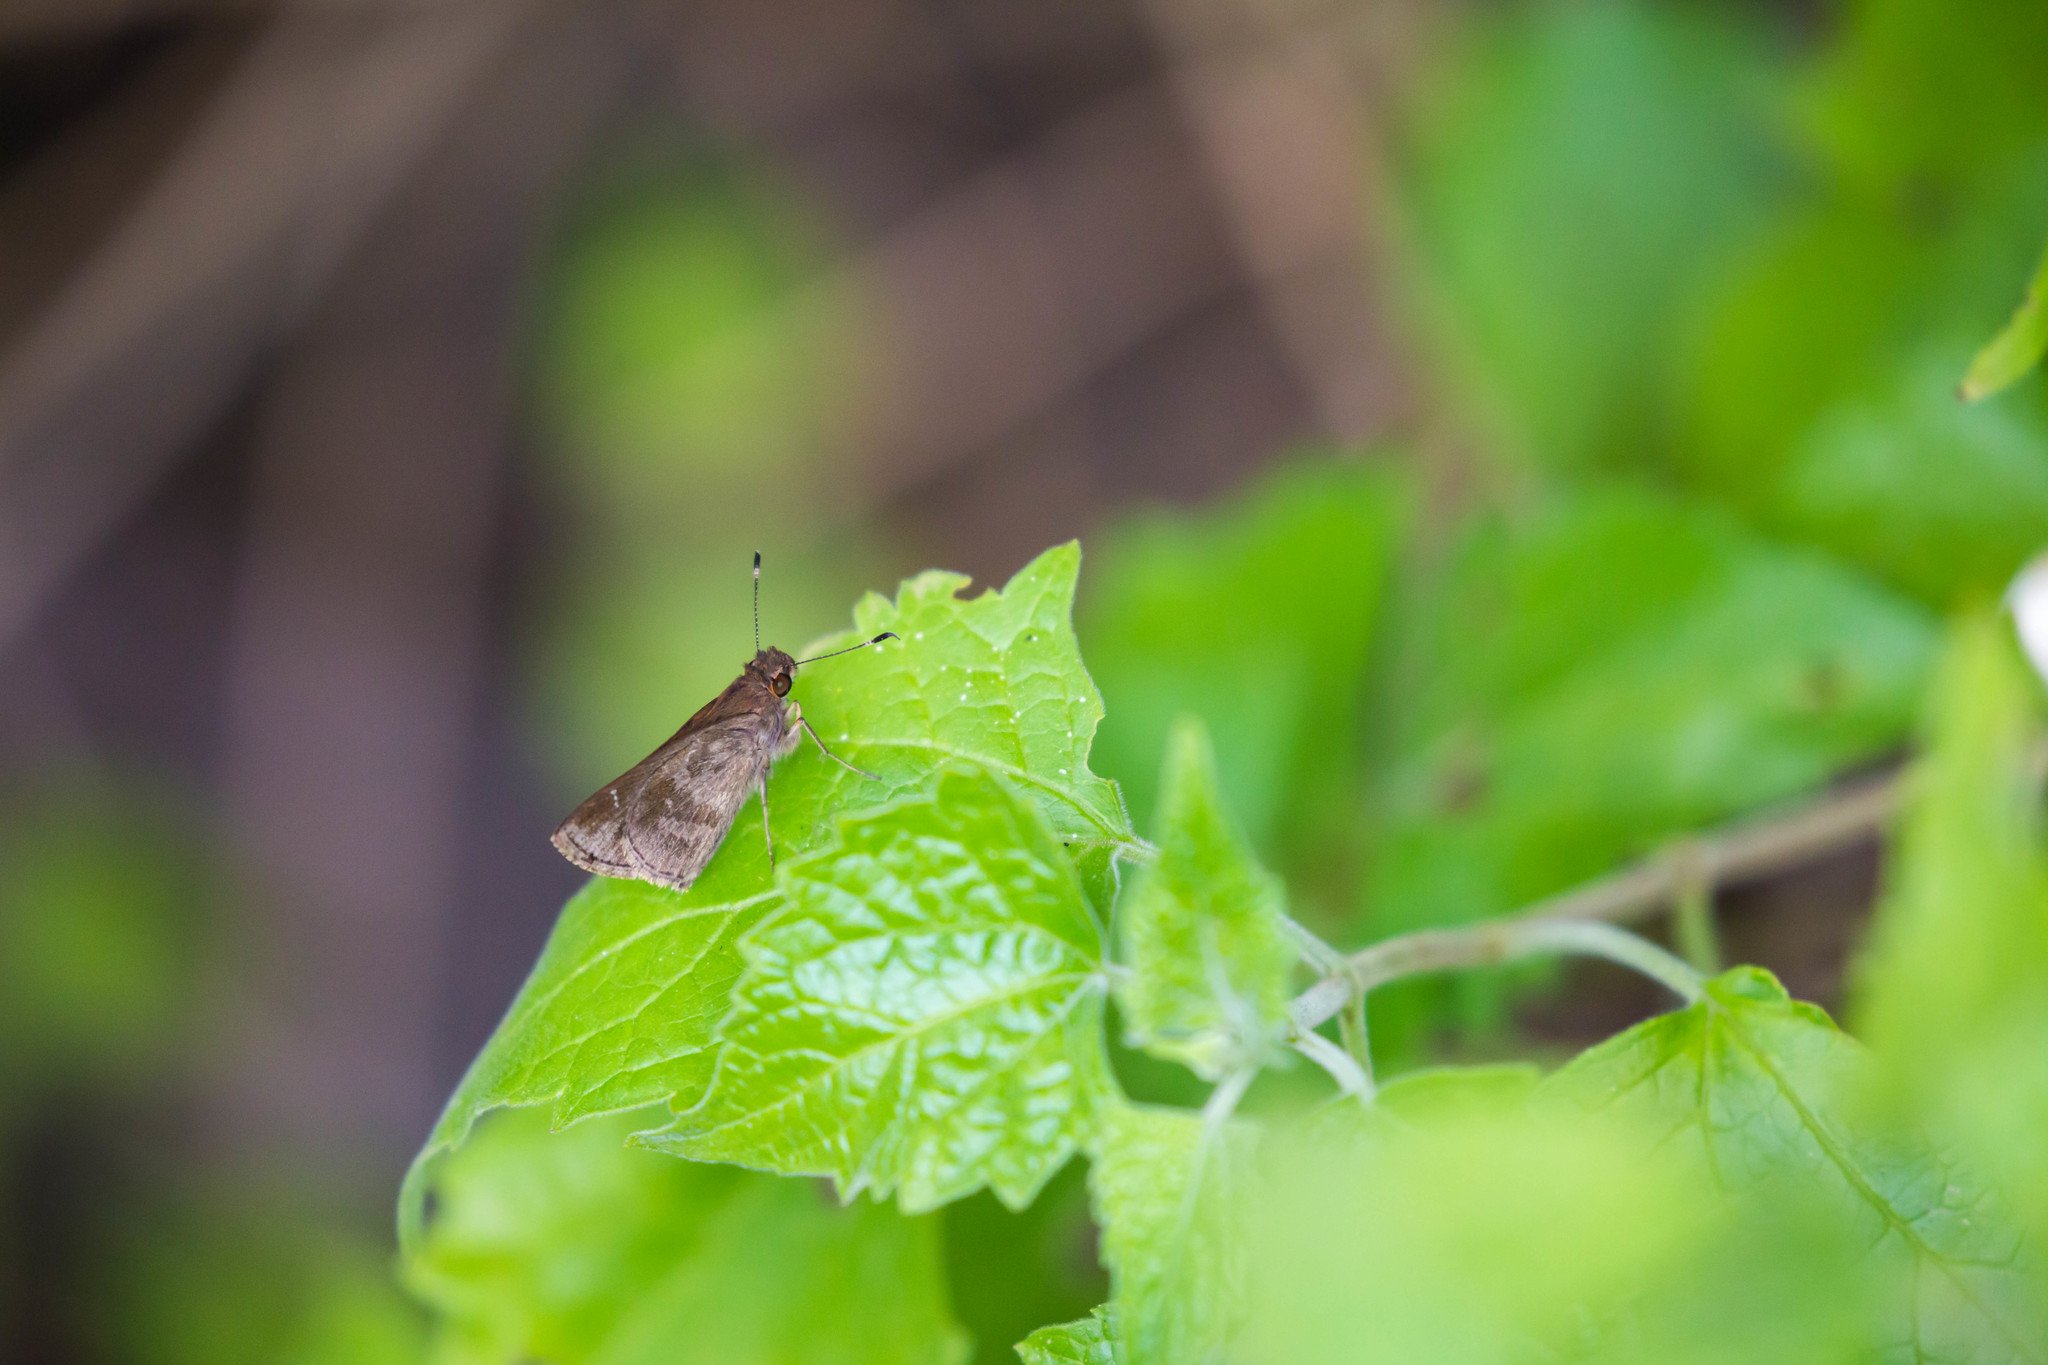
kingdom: Animalia
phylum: Arthropoda
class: Insecta
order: Lepidoptera
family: Hesperiidae
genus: Cymaenes
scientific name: Cymaenes
